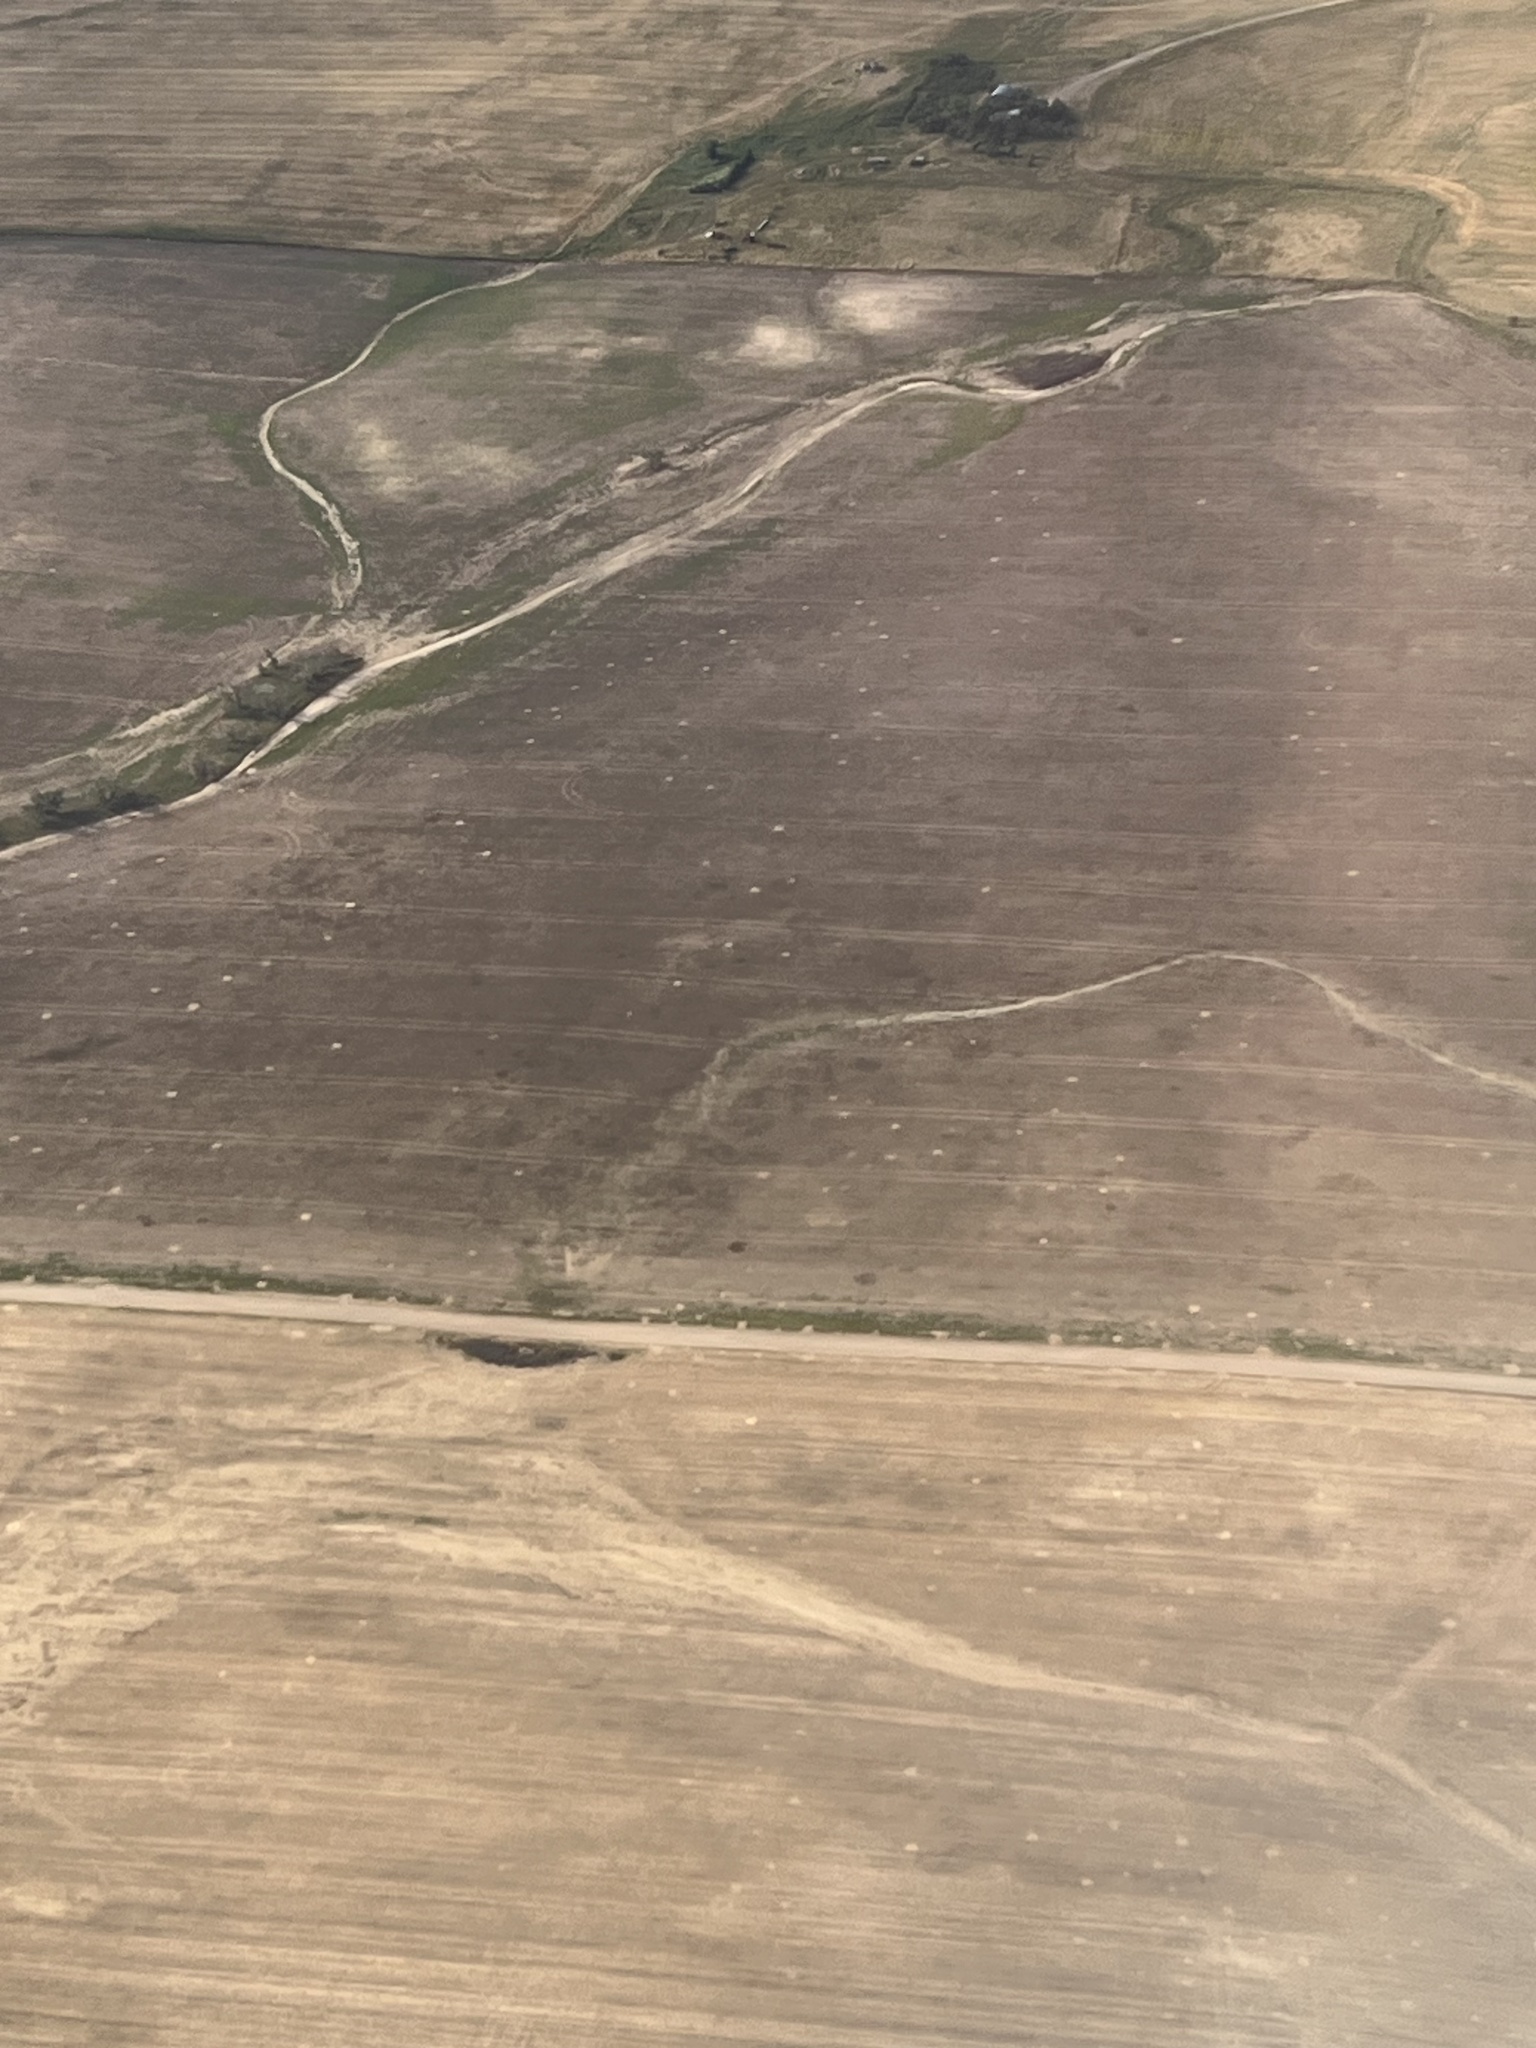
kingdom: Animalia
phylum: Chordata
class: Mammalia
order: Rodentia
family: Sciuridae
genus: Cynomys
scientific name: Cynomys ludovicianus
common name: Black-tailed prairie dog
